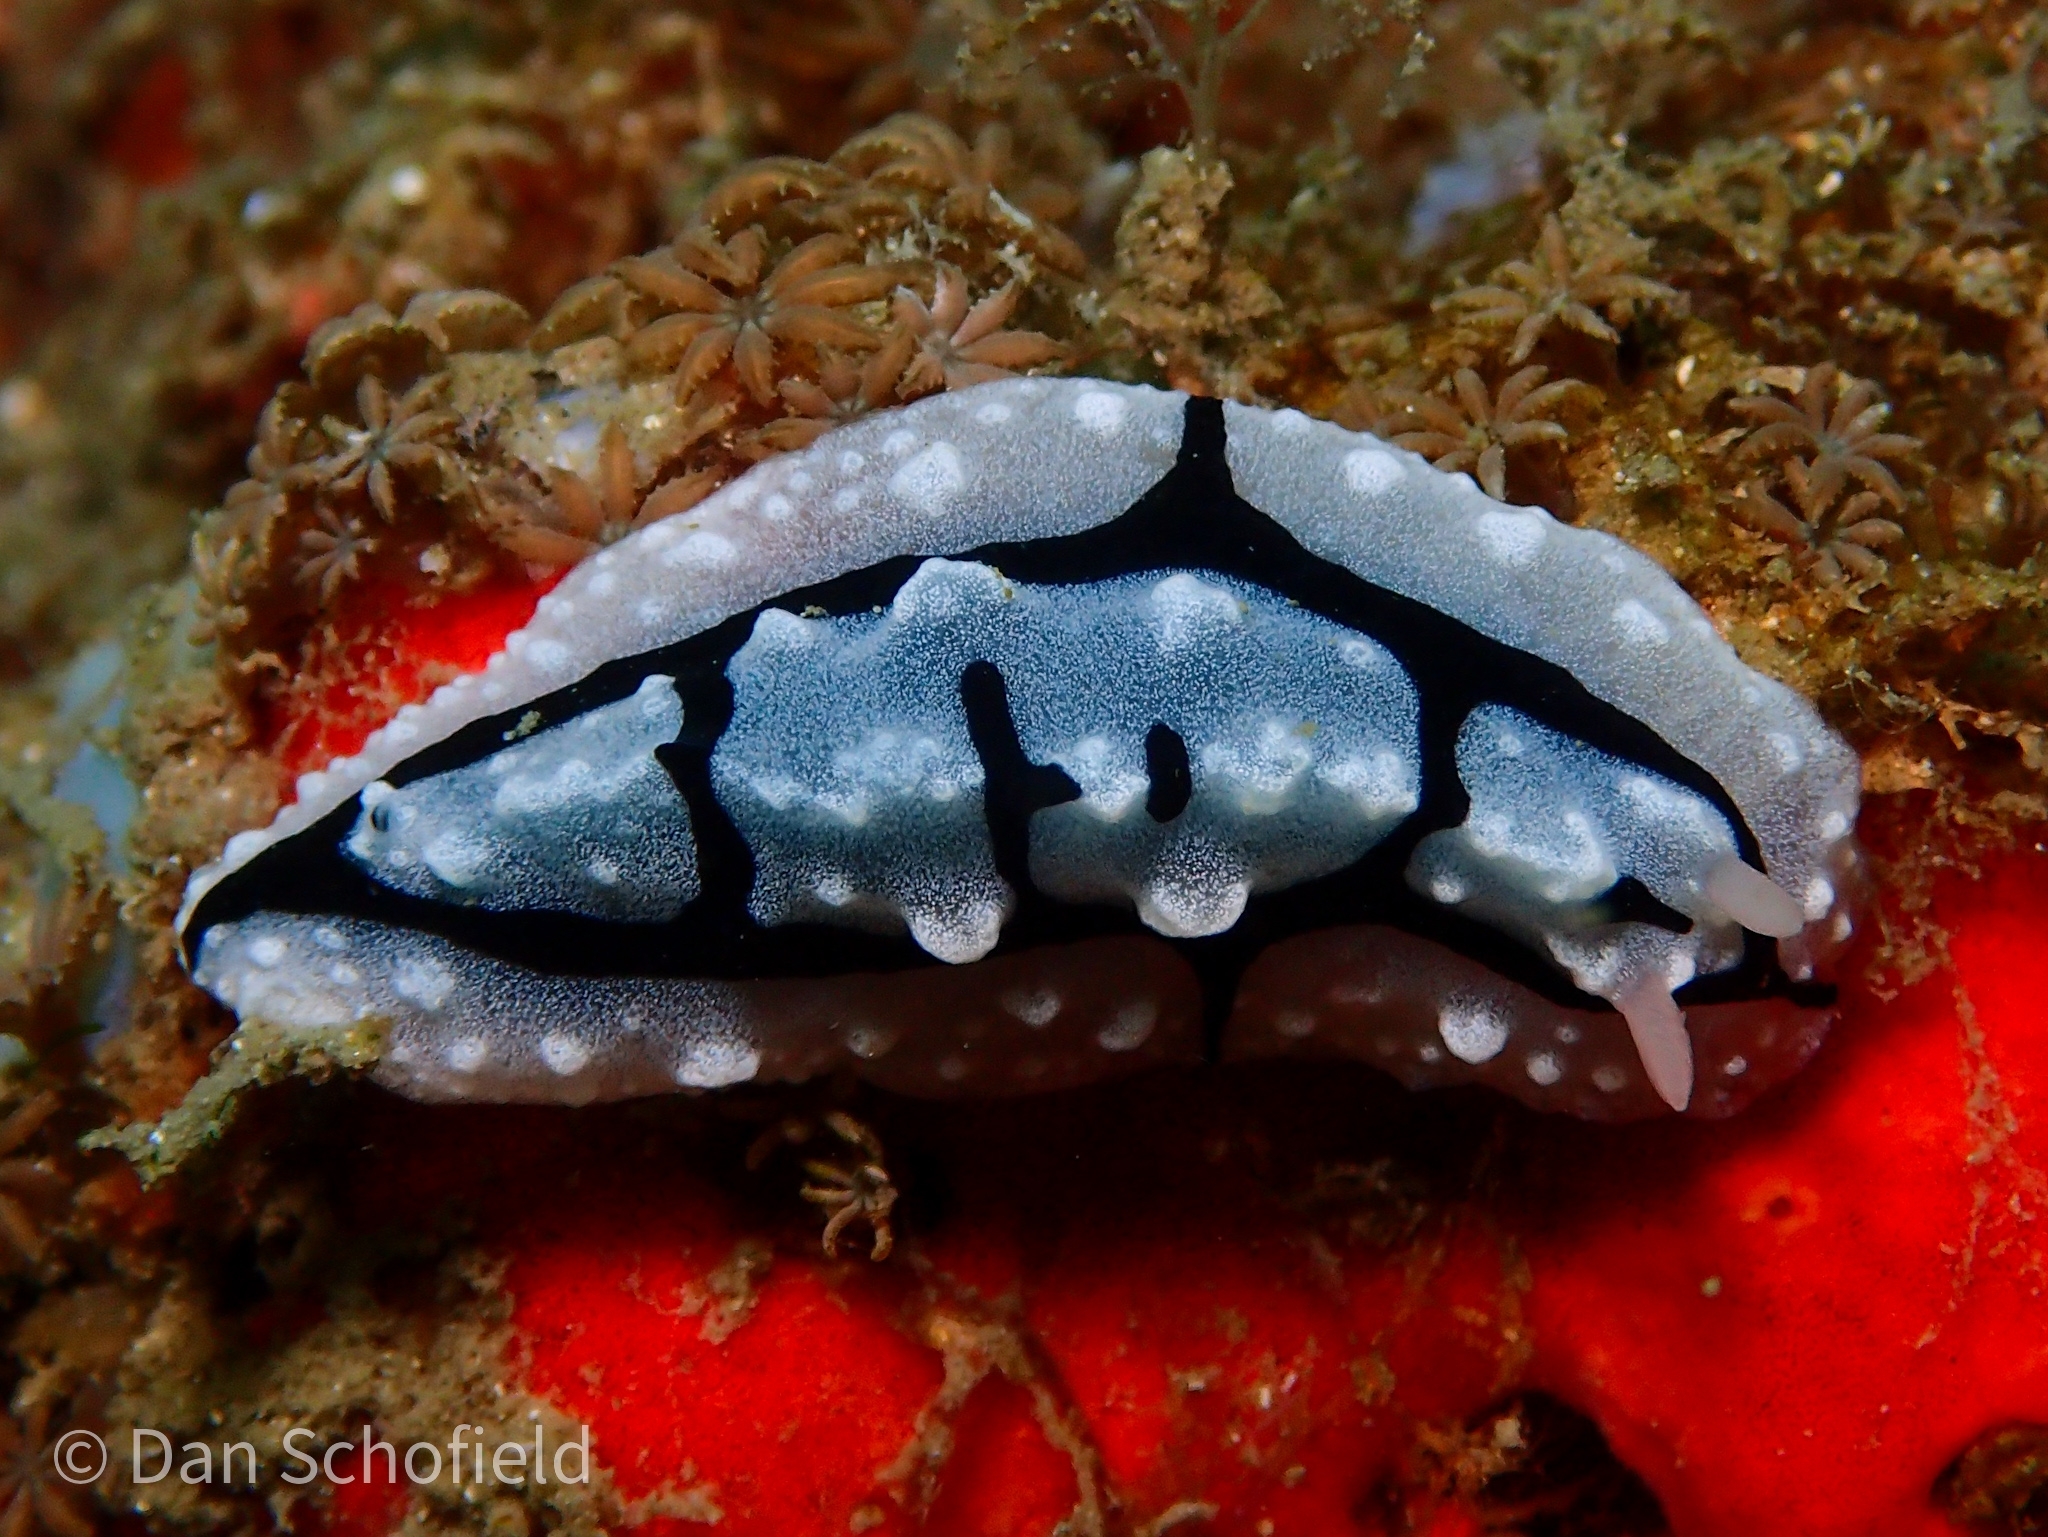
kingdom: Animalia
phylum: Mollusca
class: Gastropoda
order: Nudibranchia
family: Phyllidiidae
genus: Phyllidiopsis
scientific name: Phyllidiopsis shireenae
